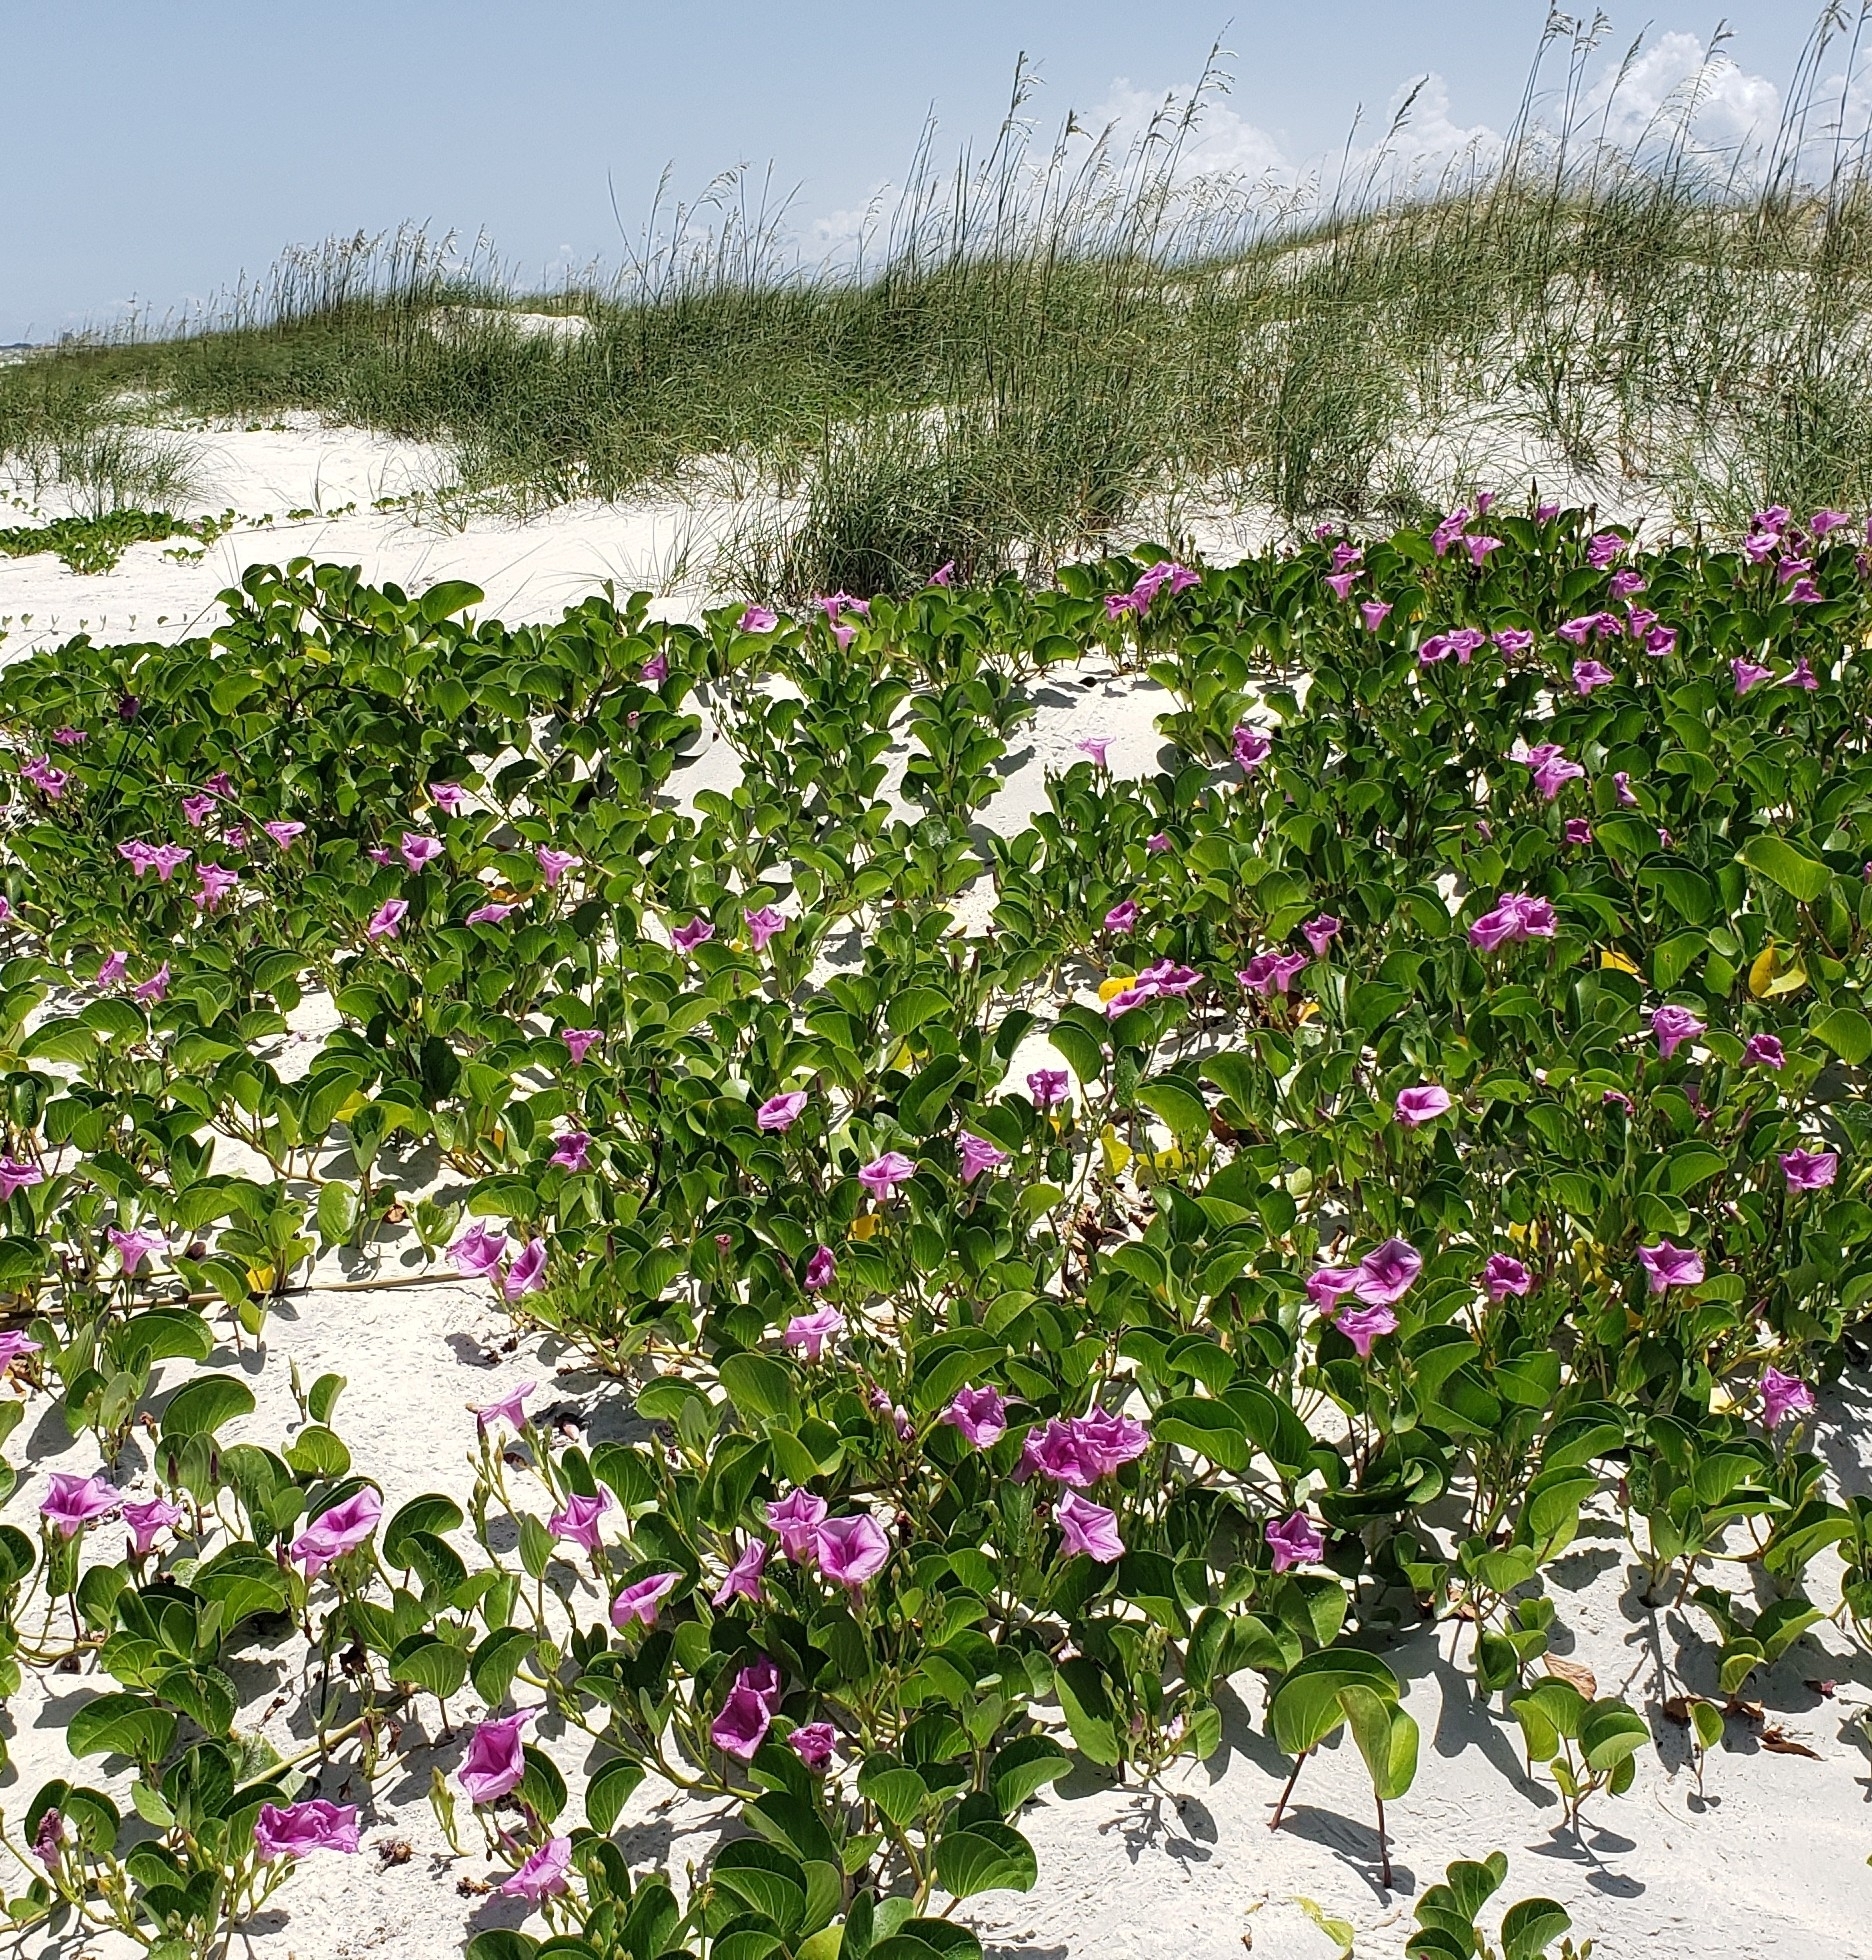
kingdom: Plantae
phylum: Tracheophyta
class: Magnoliopsida
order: Solanales
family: Convolvulaceae
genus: Ipomoea
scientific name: Ipomoea pes-caprae
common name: Beach morning glory
